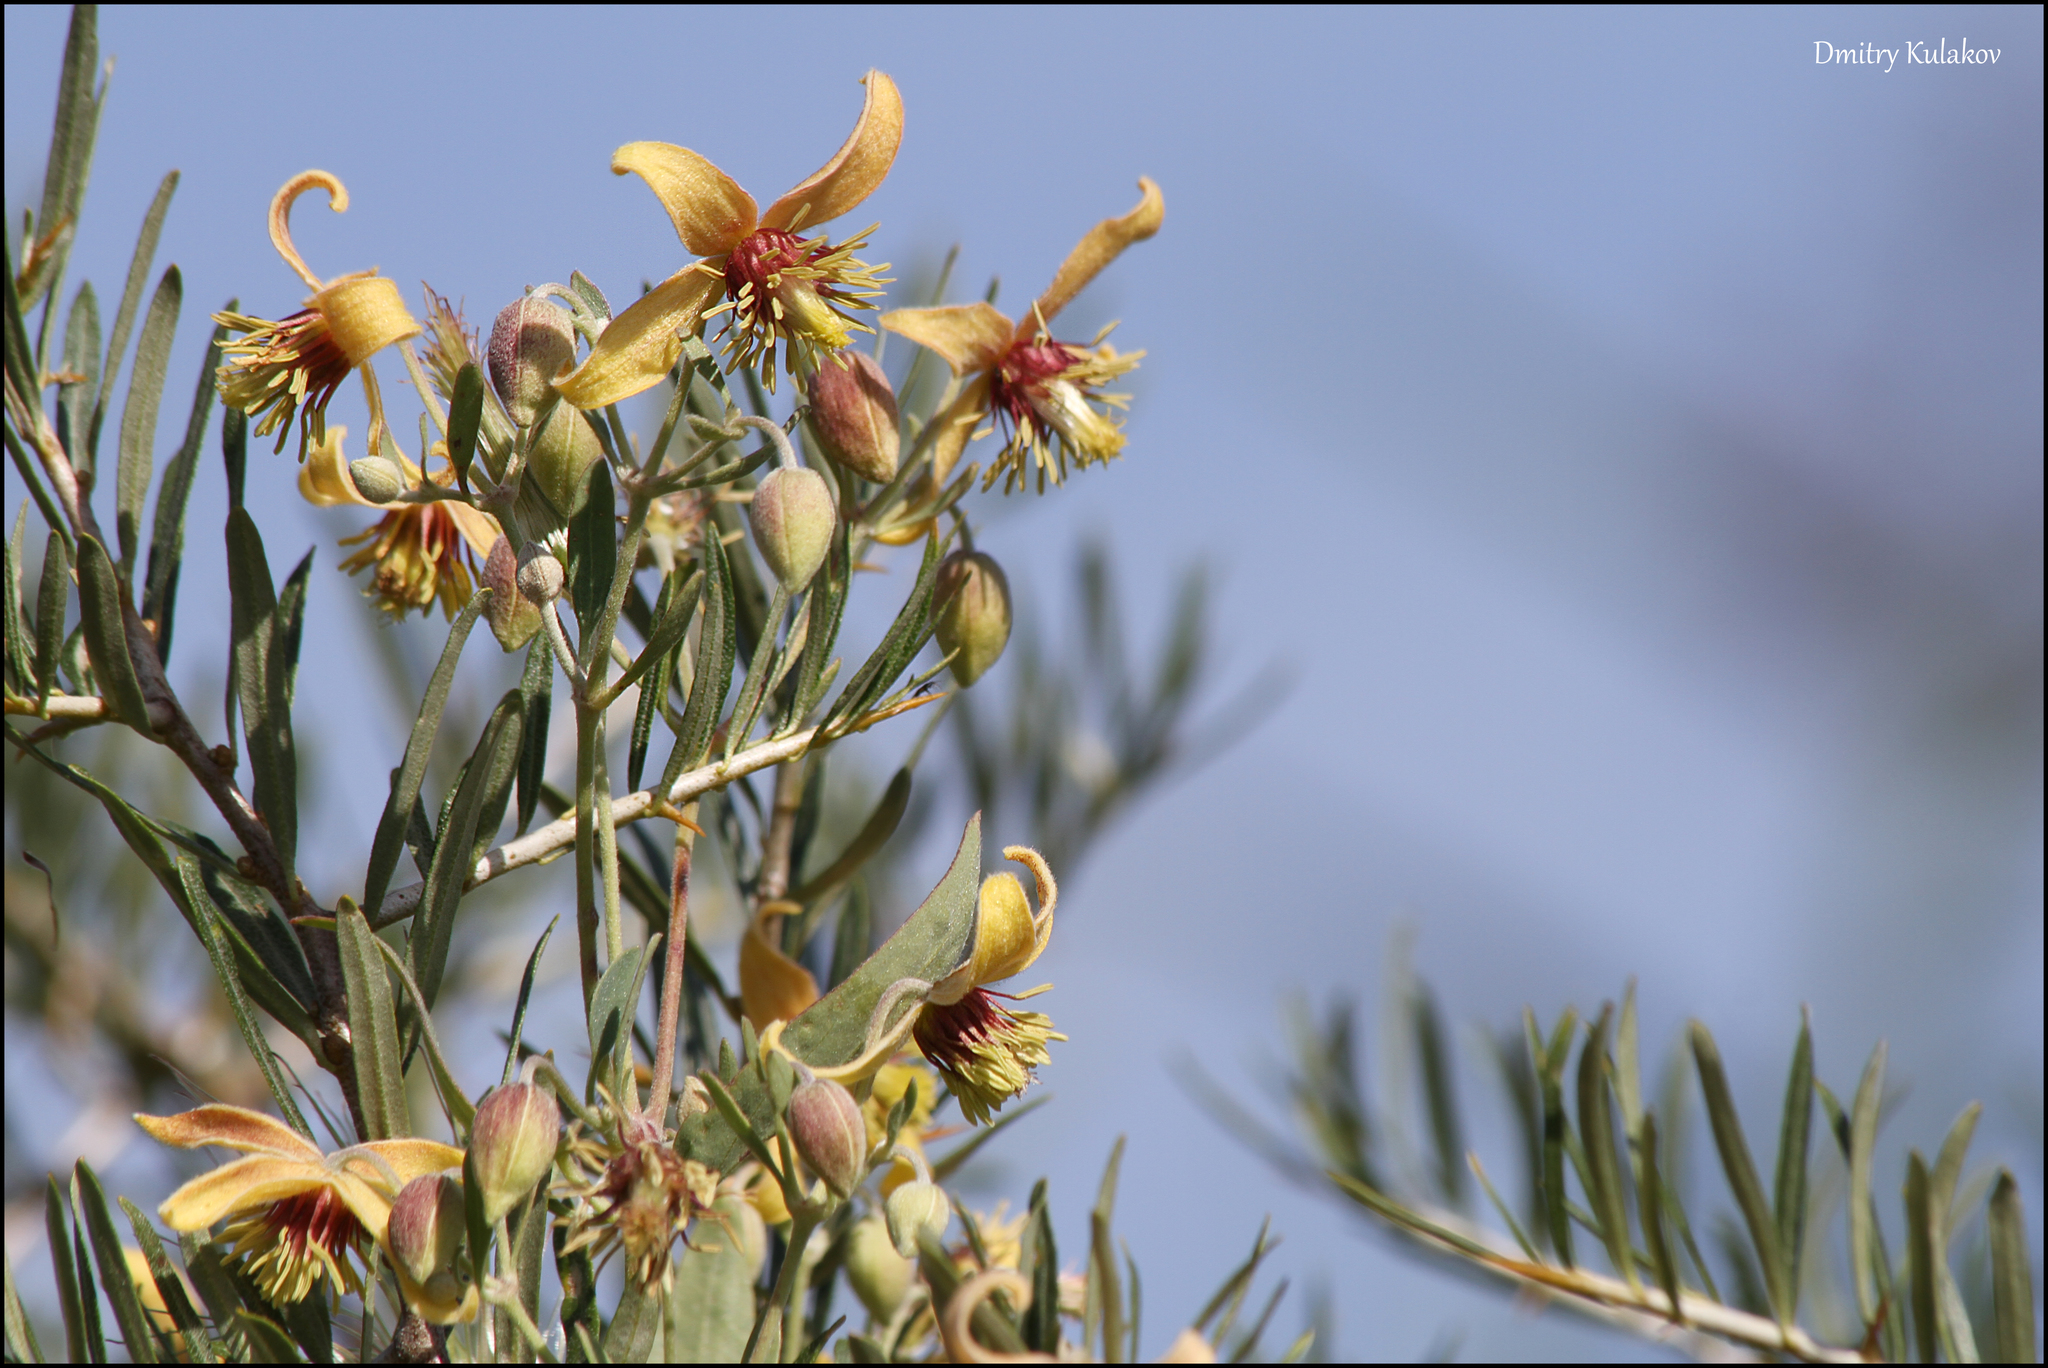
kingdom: Plantae
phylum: Tracheophyta
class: Magnoliopsida
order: Ranunculales
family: Ranunculaceae
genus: Clematis
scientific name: Clematis orientalis
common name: Oriental virgin's-bower
